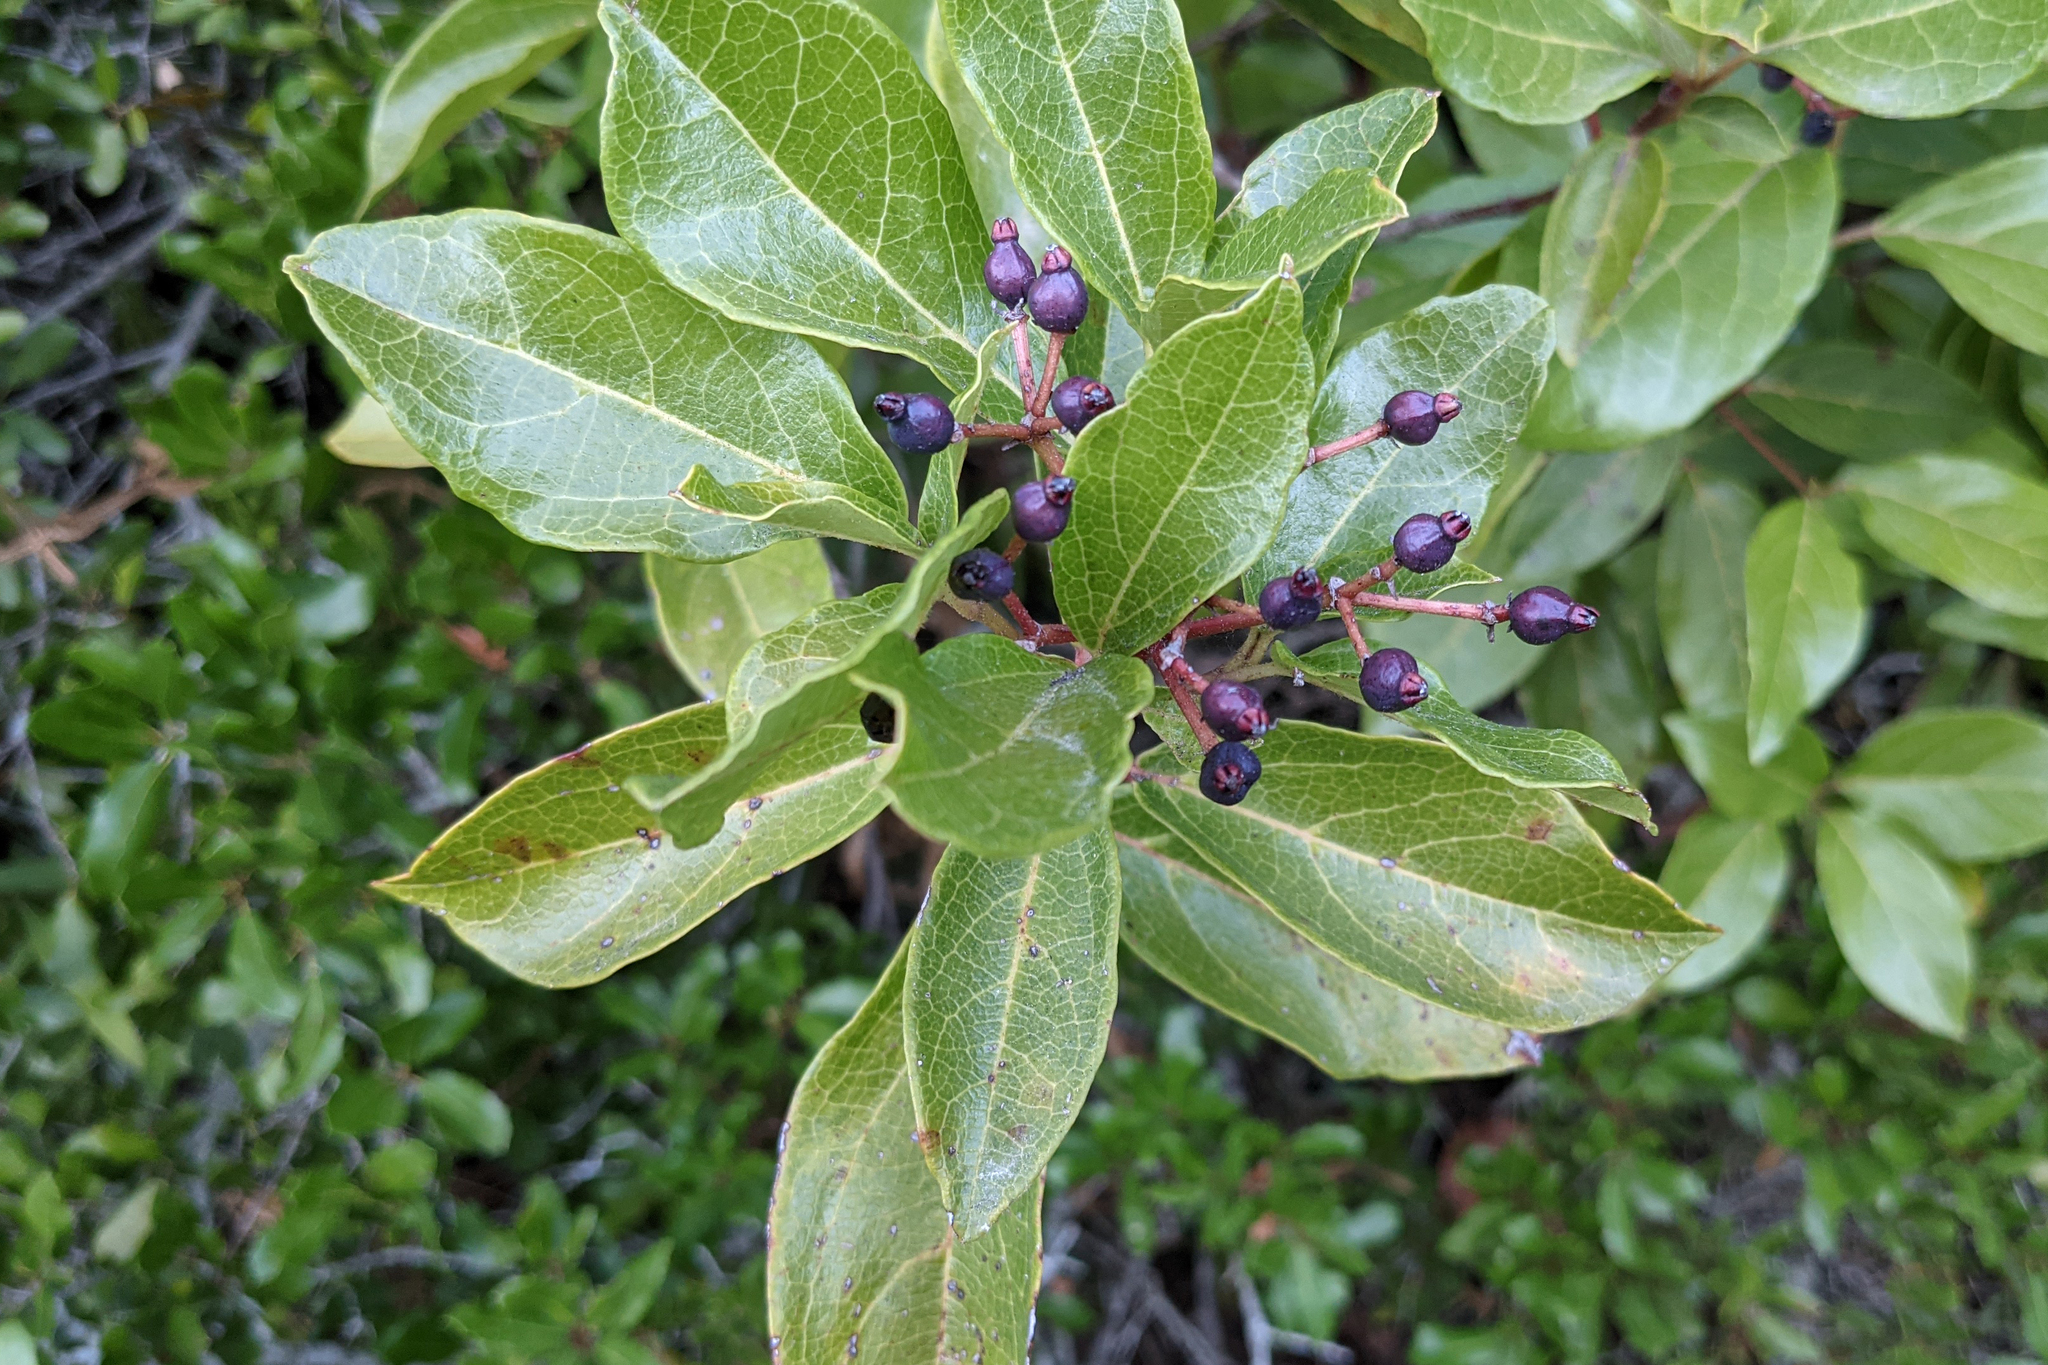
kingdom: Plantae
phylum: Tracheophyta
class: Magnoliopsida
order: Dipsacales
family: Viburnaceae
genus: Viburnum
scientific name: Viburnum tinus
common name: Laurustinus
